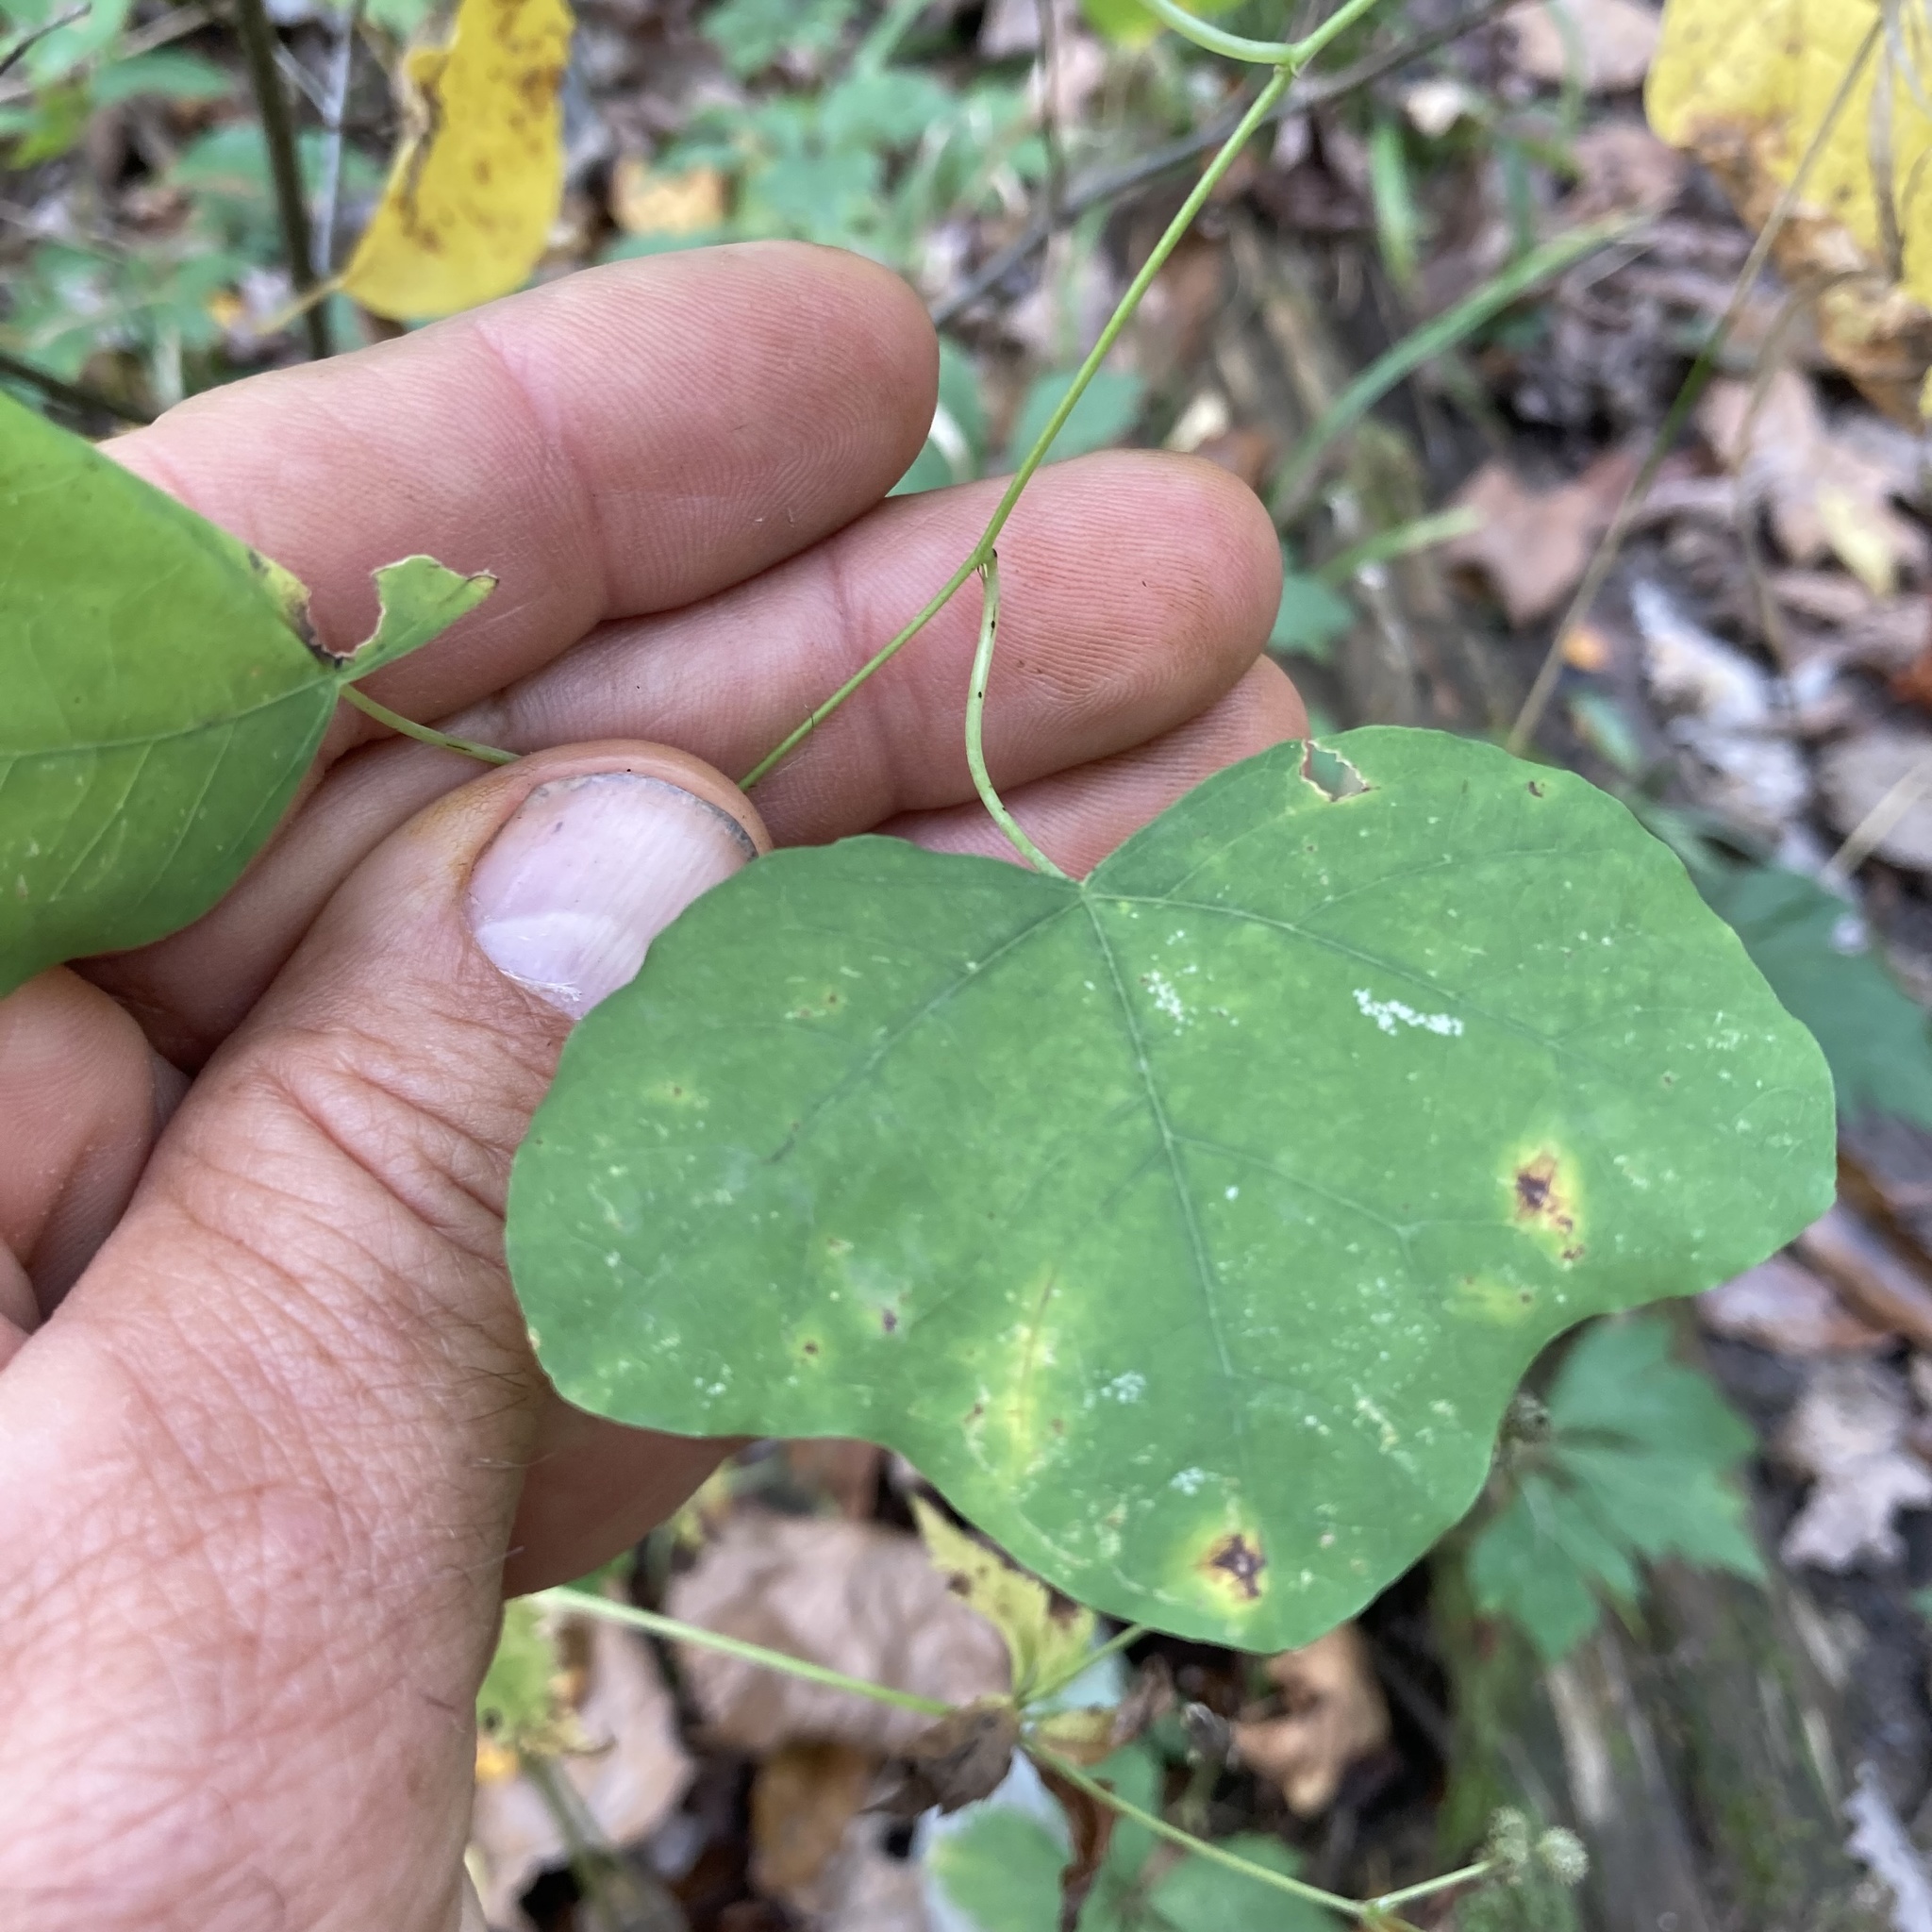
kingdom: Plantae
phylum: Tracheophyta
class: Magnoliopsida
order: Malpighiales
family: Passifloraceae
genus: Passiflora
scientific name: Passiflora lutea
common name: Yellow passionflower
